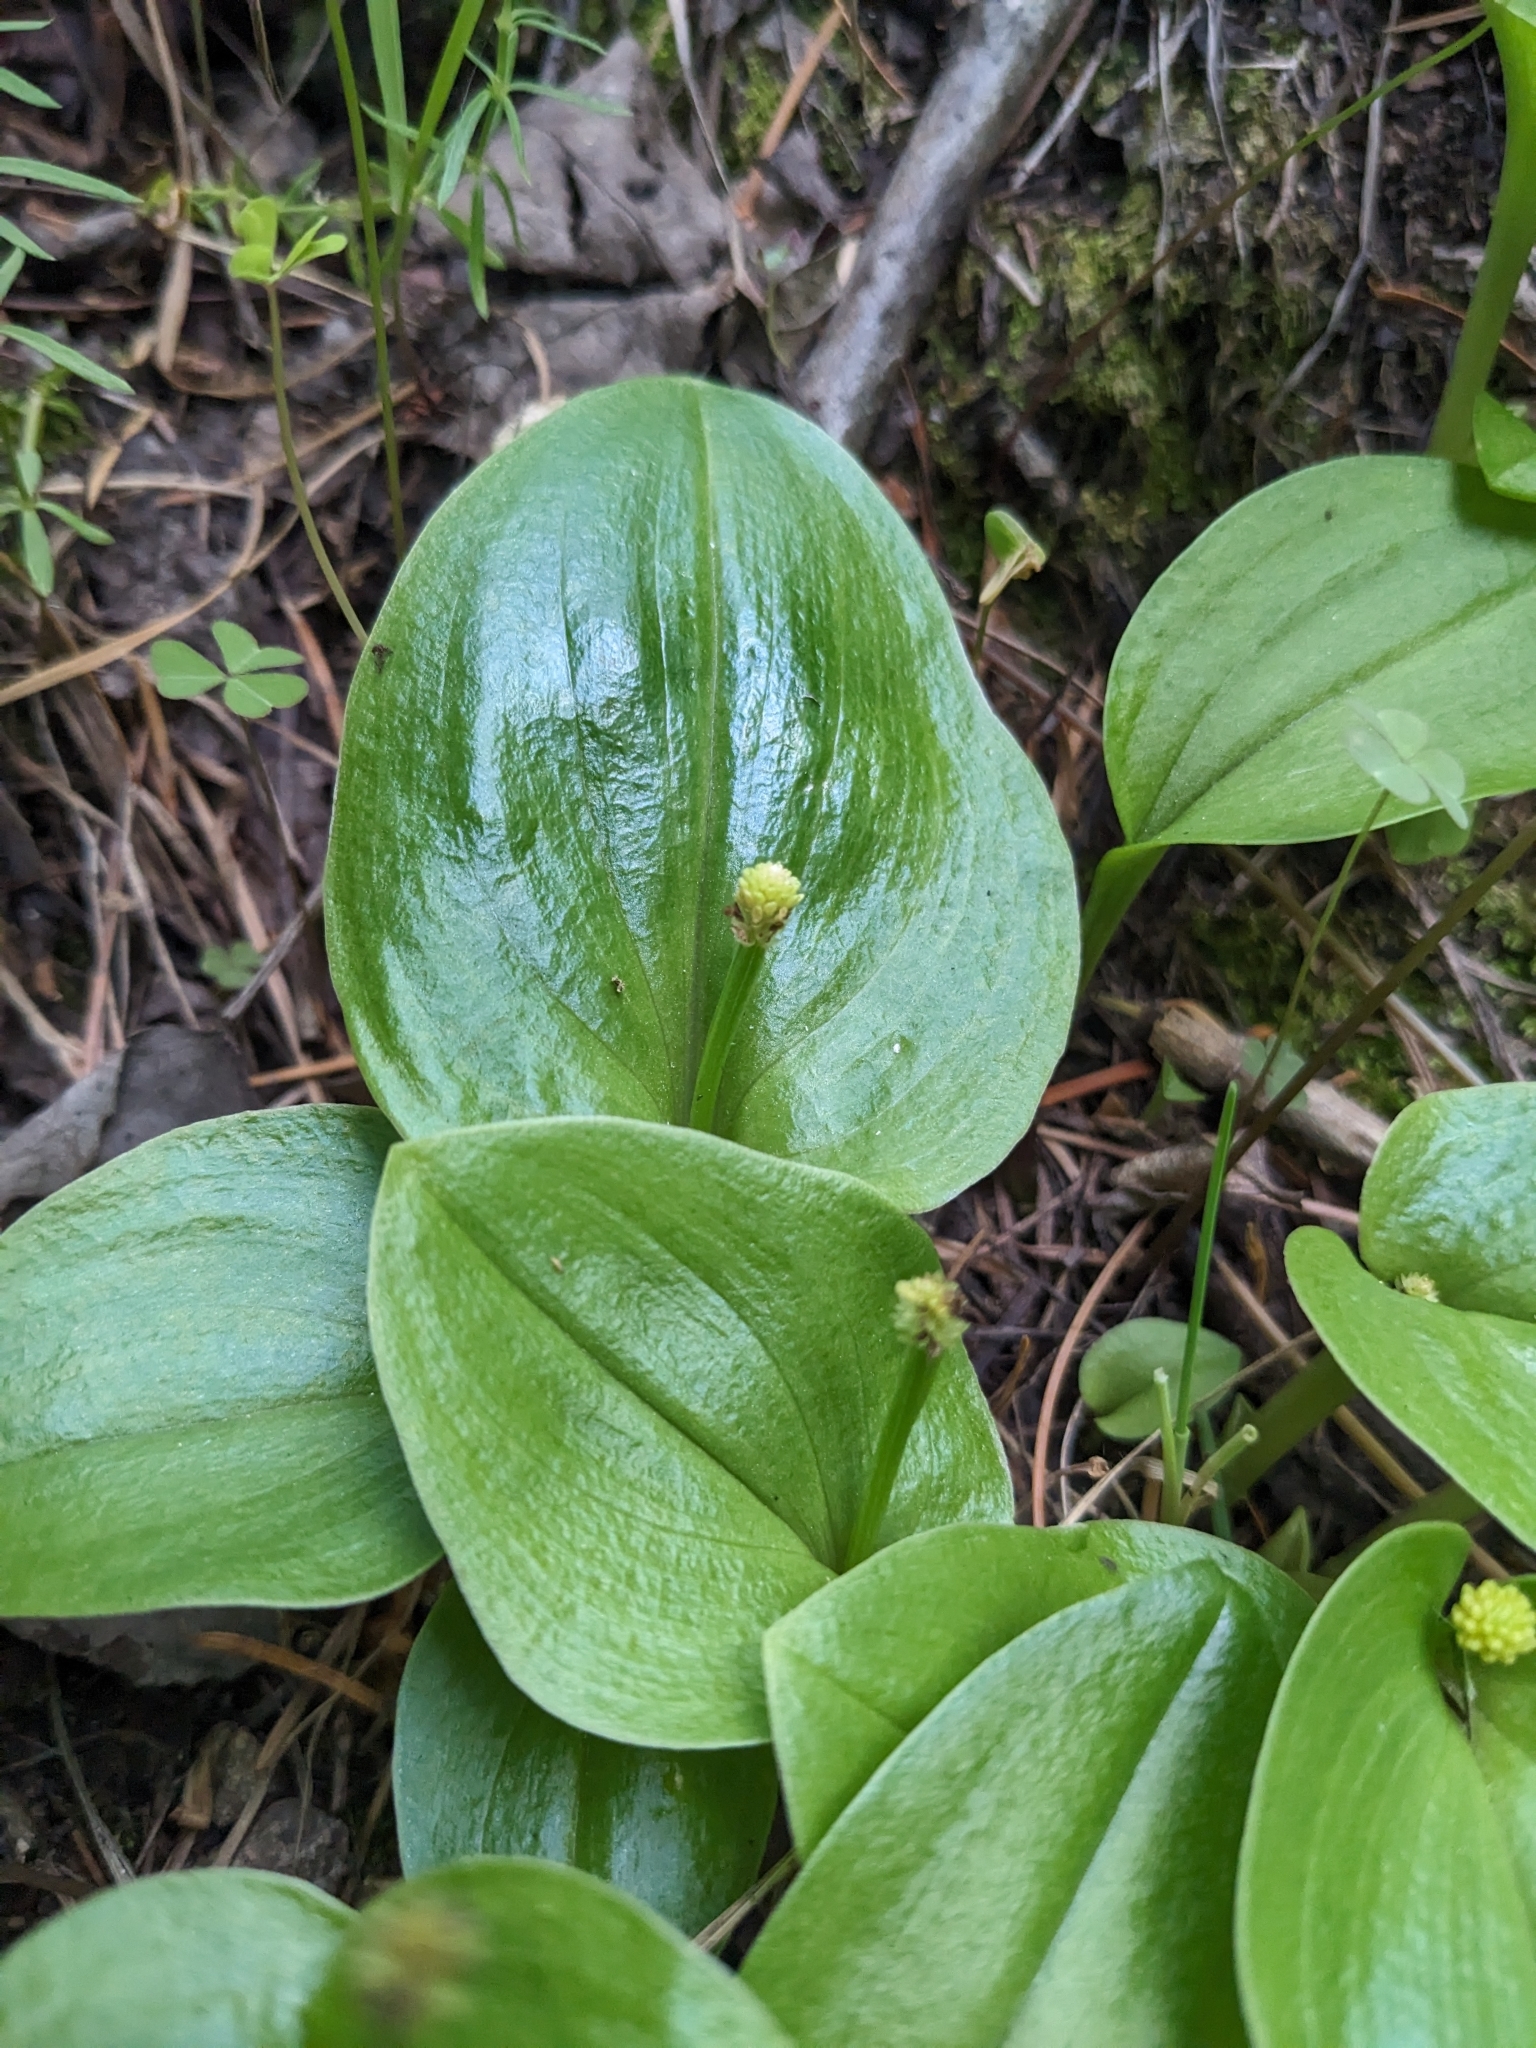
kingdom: Plantae
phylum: Tracheophyta
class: Liliopsida
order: Asparagales
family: Orchidaceae
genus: Malaxis
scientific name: Malaxis brachystachys
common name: Huachuca adder's-mouth
